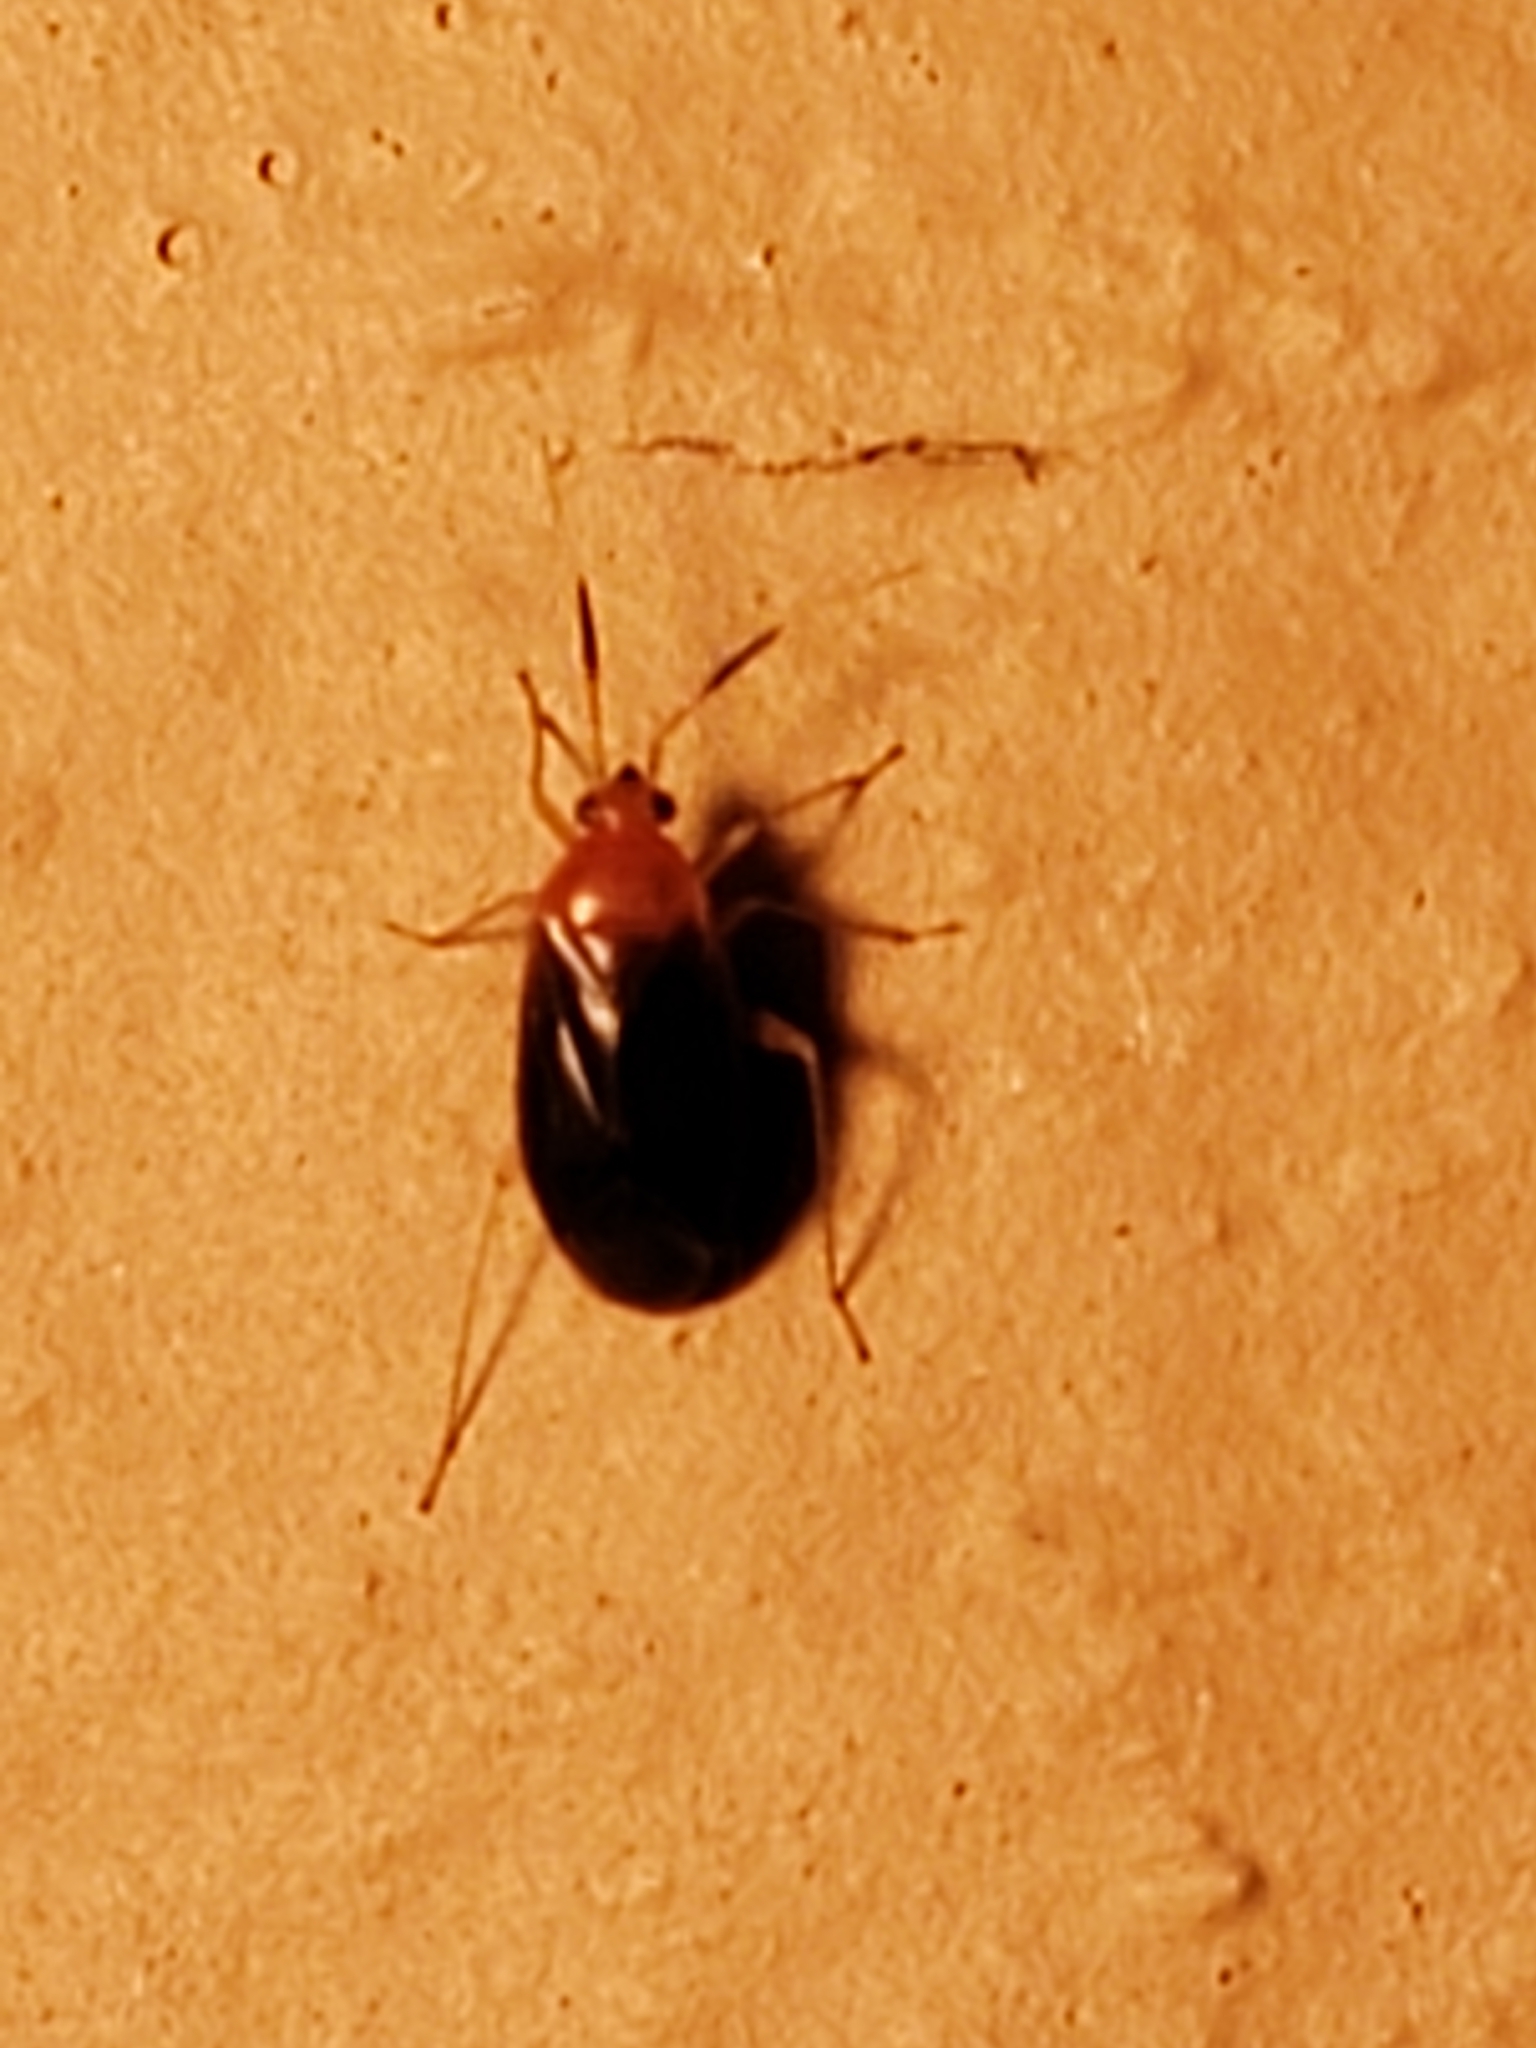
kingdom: Animalia
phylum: Arthropoda
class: Insecta
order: Hemiptera
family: Miridae
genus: Rhinocapsus
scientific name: Rhinocapsus vanduzeei
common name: Azalea plant bug
